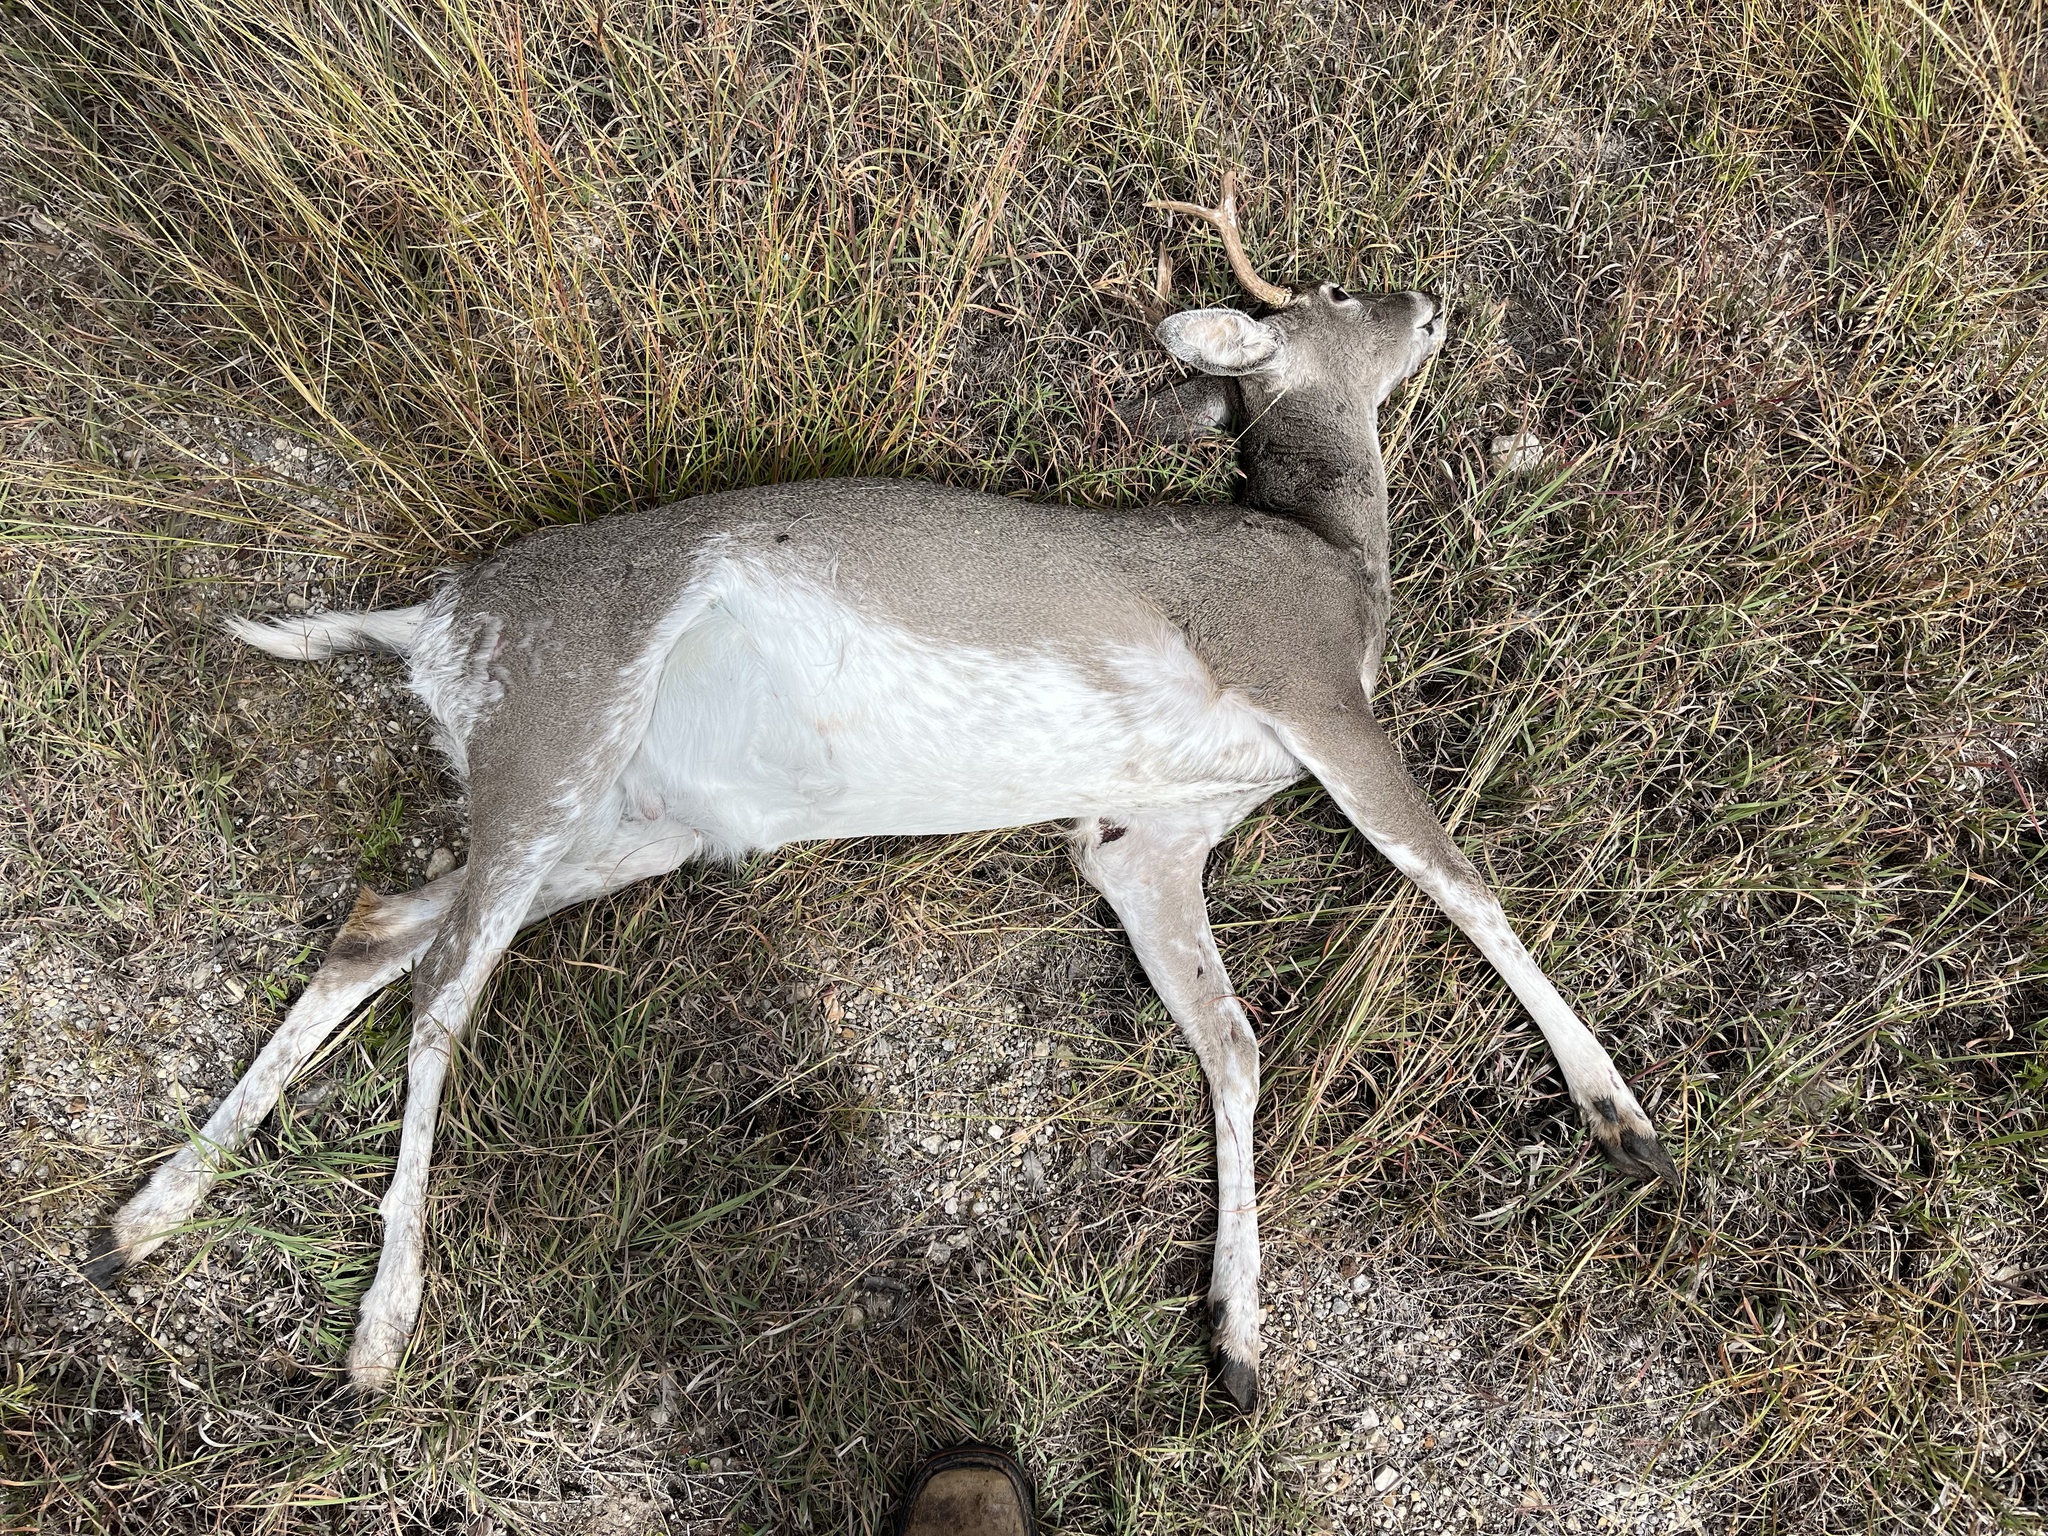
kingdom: Animalia
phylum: Chordata
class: Mammalia
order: Artiodactyla
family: Cervidae
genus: Odocoileus
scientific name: Odocoileus virginianus
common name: White-tailed deer
